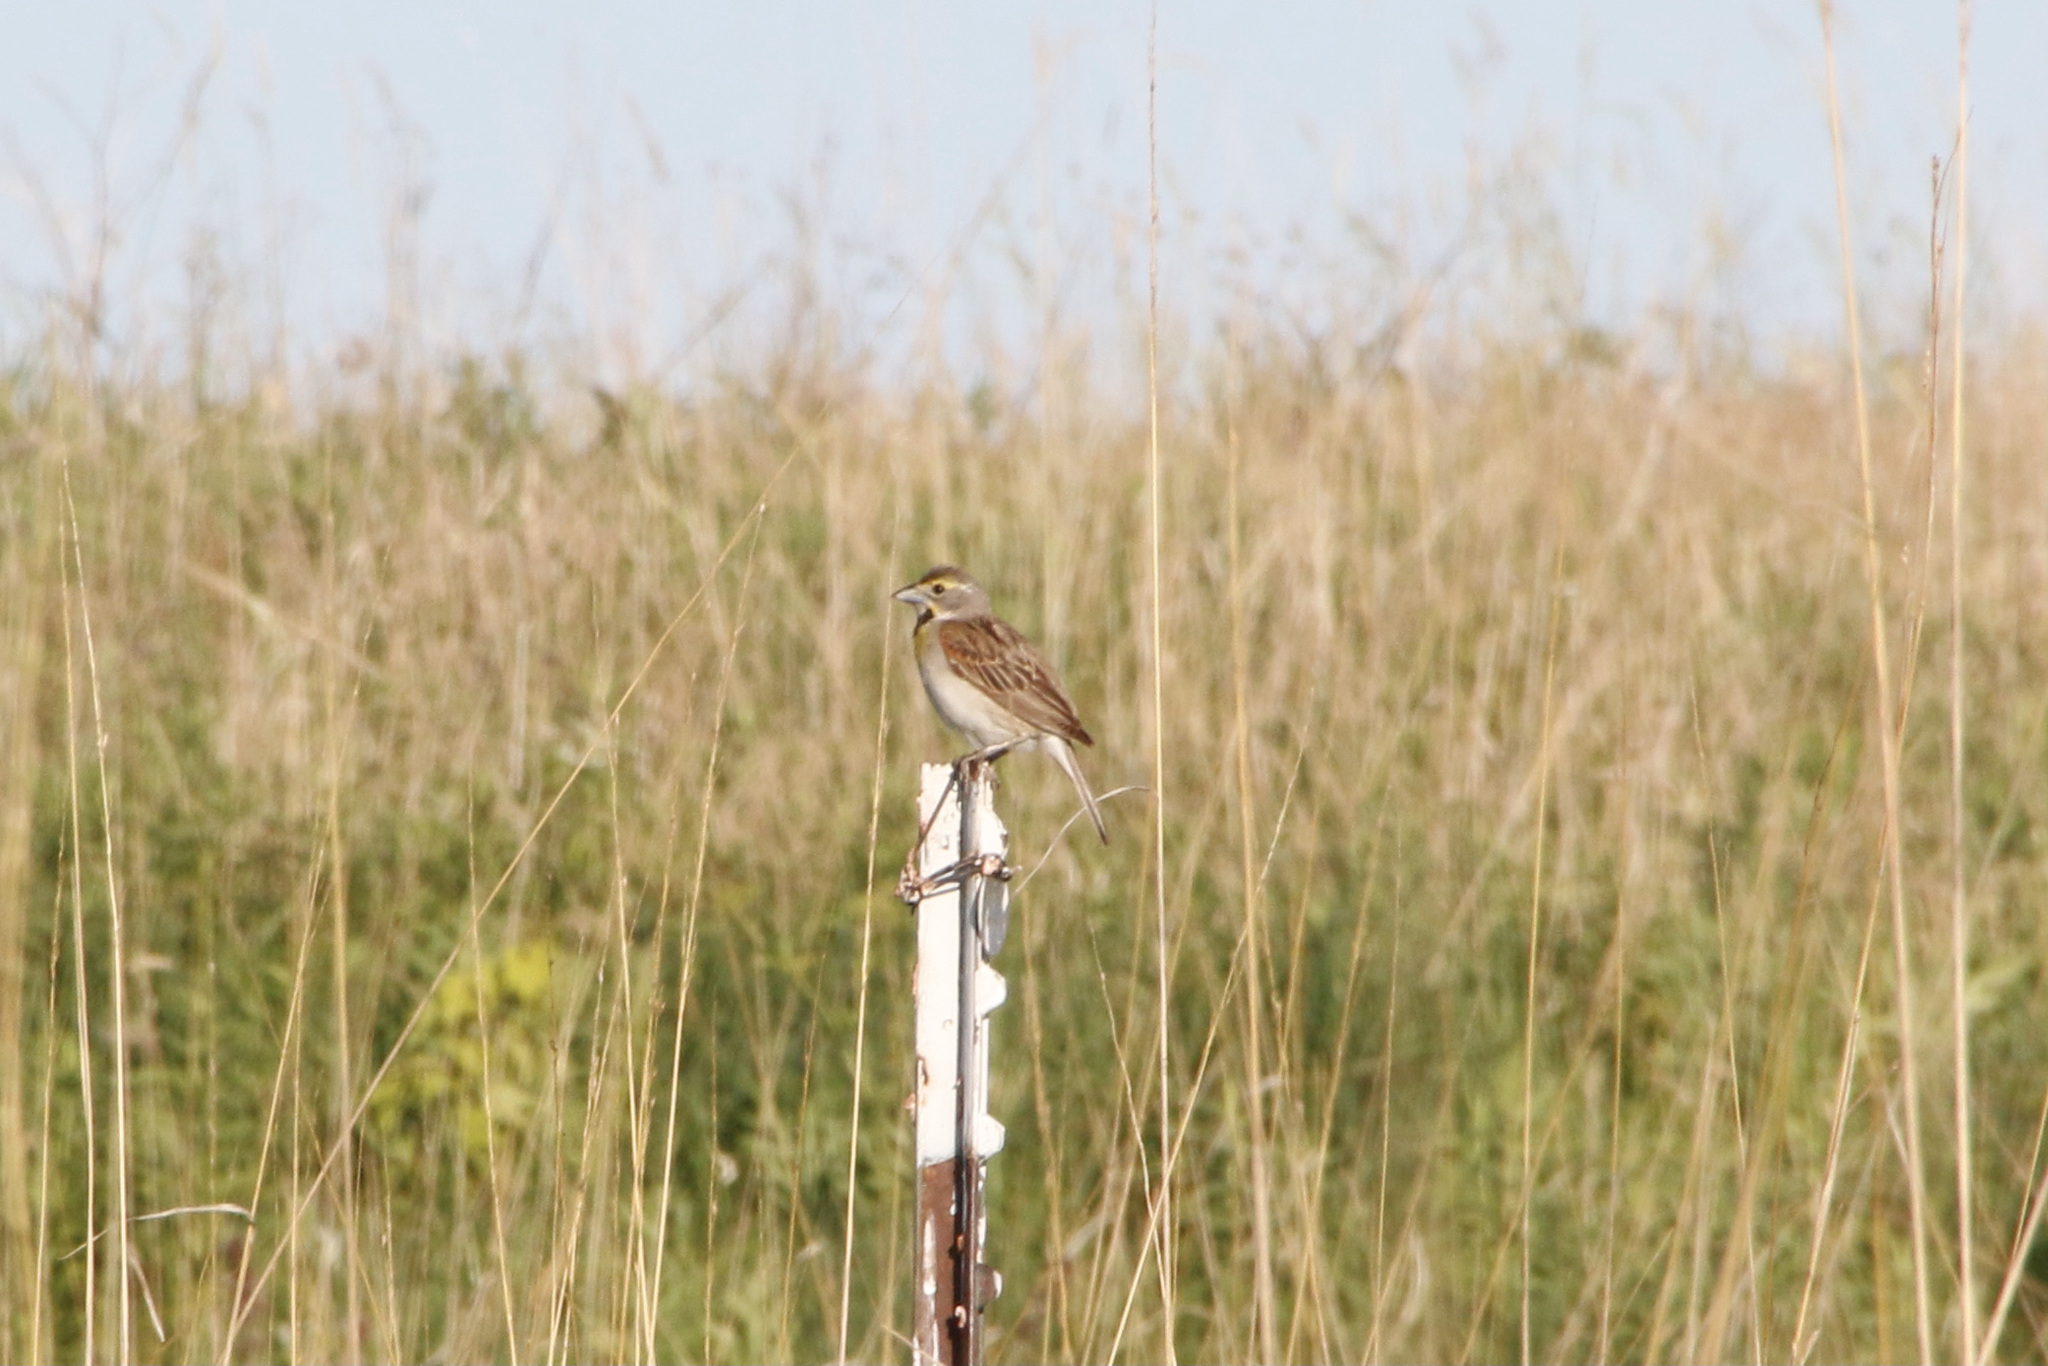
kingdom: Animalia
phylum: Chordata
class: Aves
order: Passeriformes
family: Cardinalidae
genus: Spiza
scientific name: Spiza americana
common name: Dickcissel
